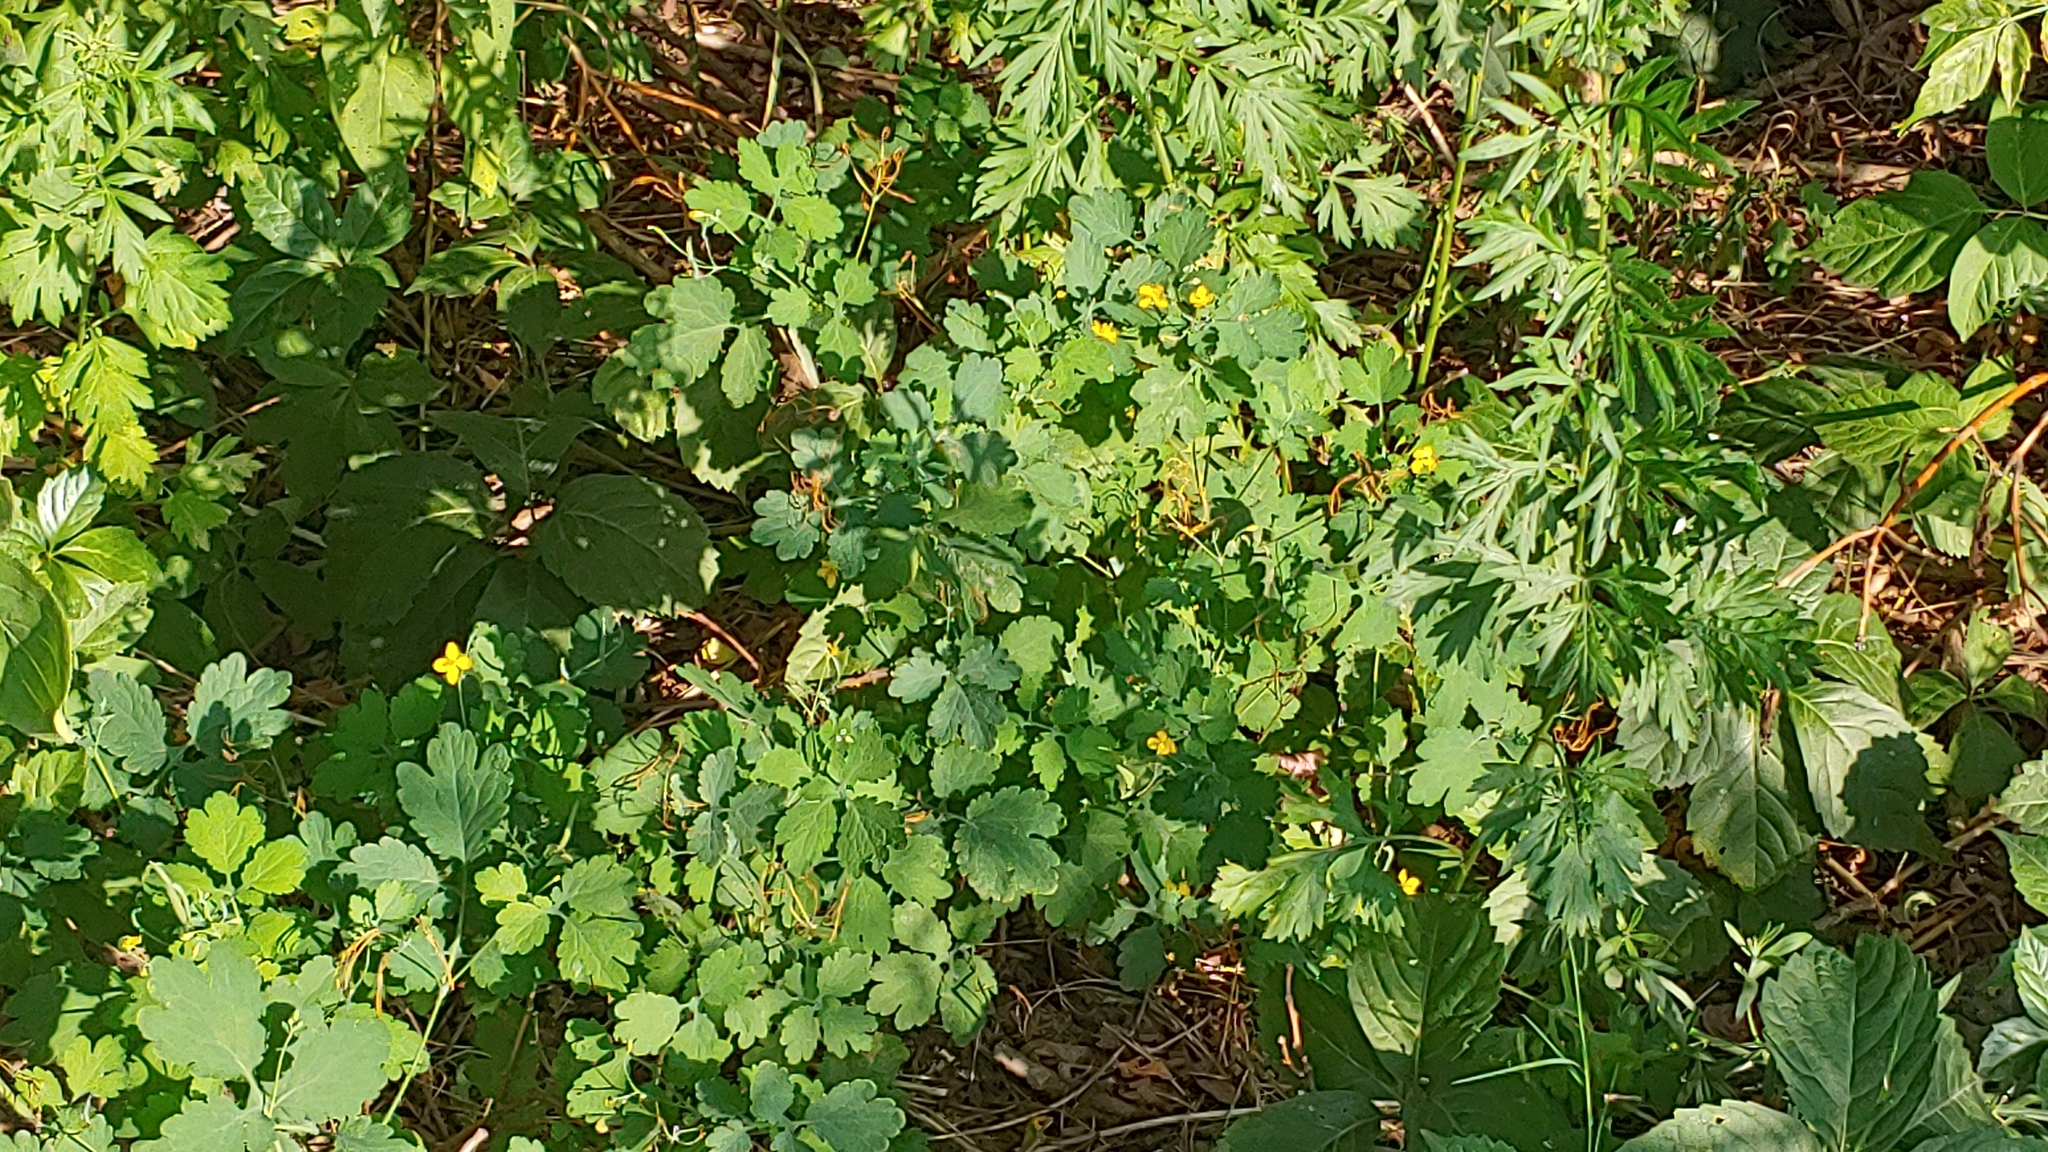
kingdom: Plantae
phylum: Tracheophyta
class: Magnoliopsida
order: Ranunculales
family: Papaveraceae
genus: Chelidonium
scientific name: Chelidonium majus
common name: Greater celandine
